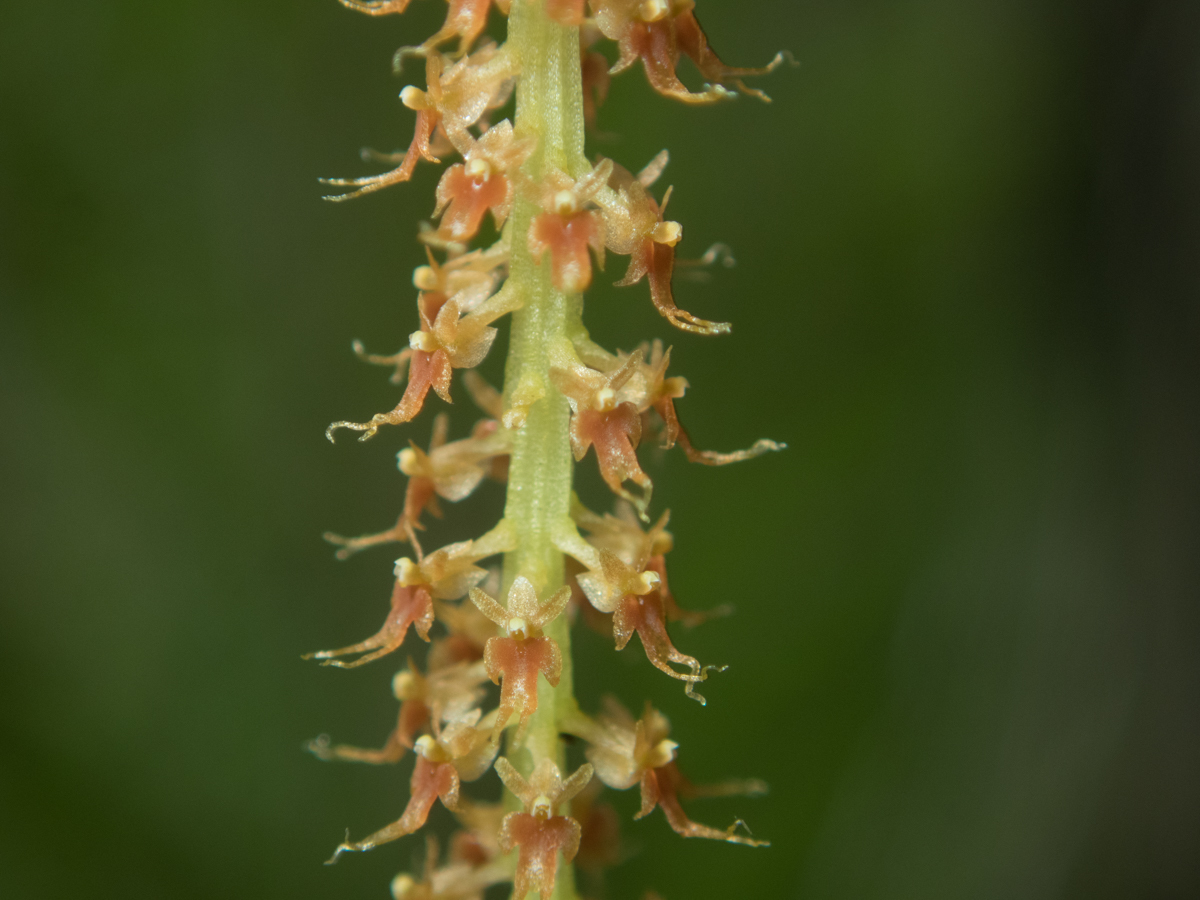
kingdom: Plantae
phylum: Tracheophyta
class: Liliopsida
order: Asparagales
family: Orchidaceae
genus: Oberonia
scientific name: Oberonia falcata
